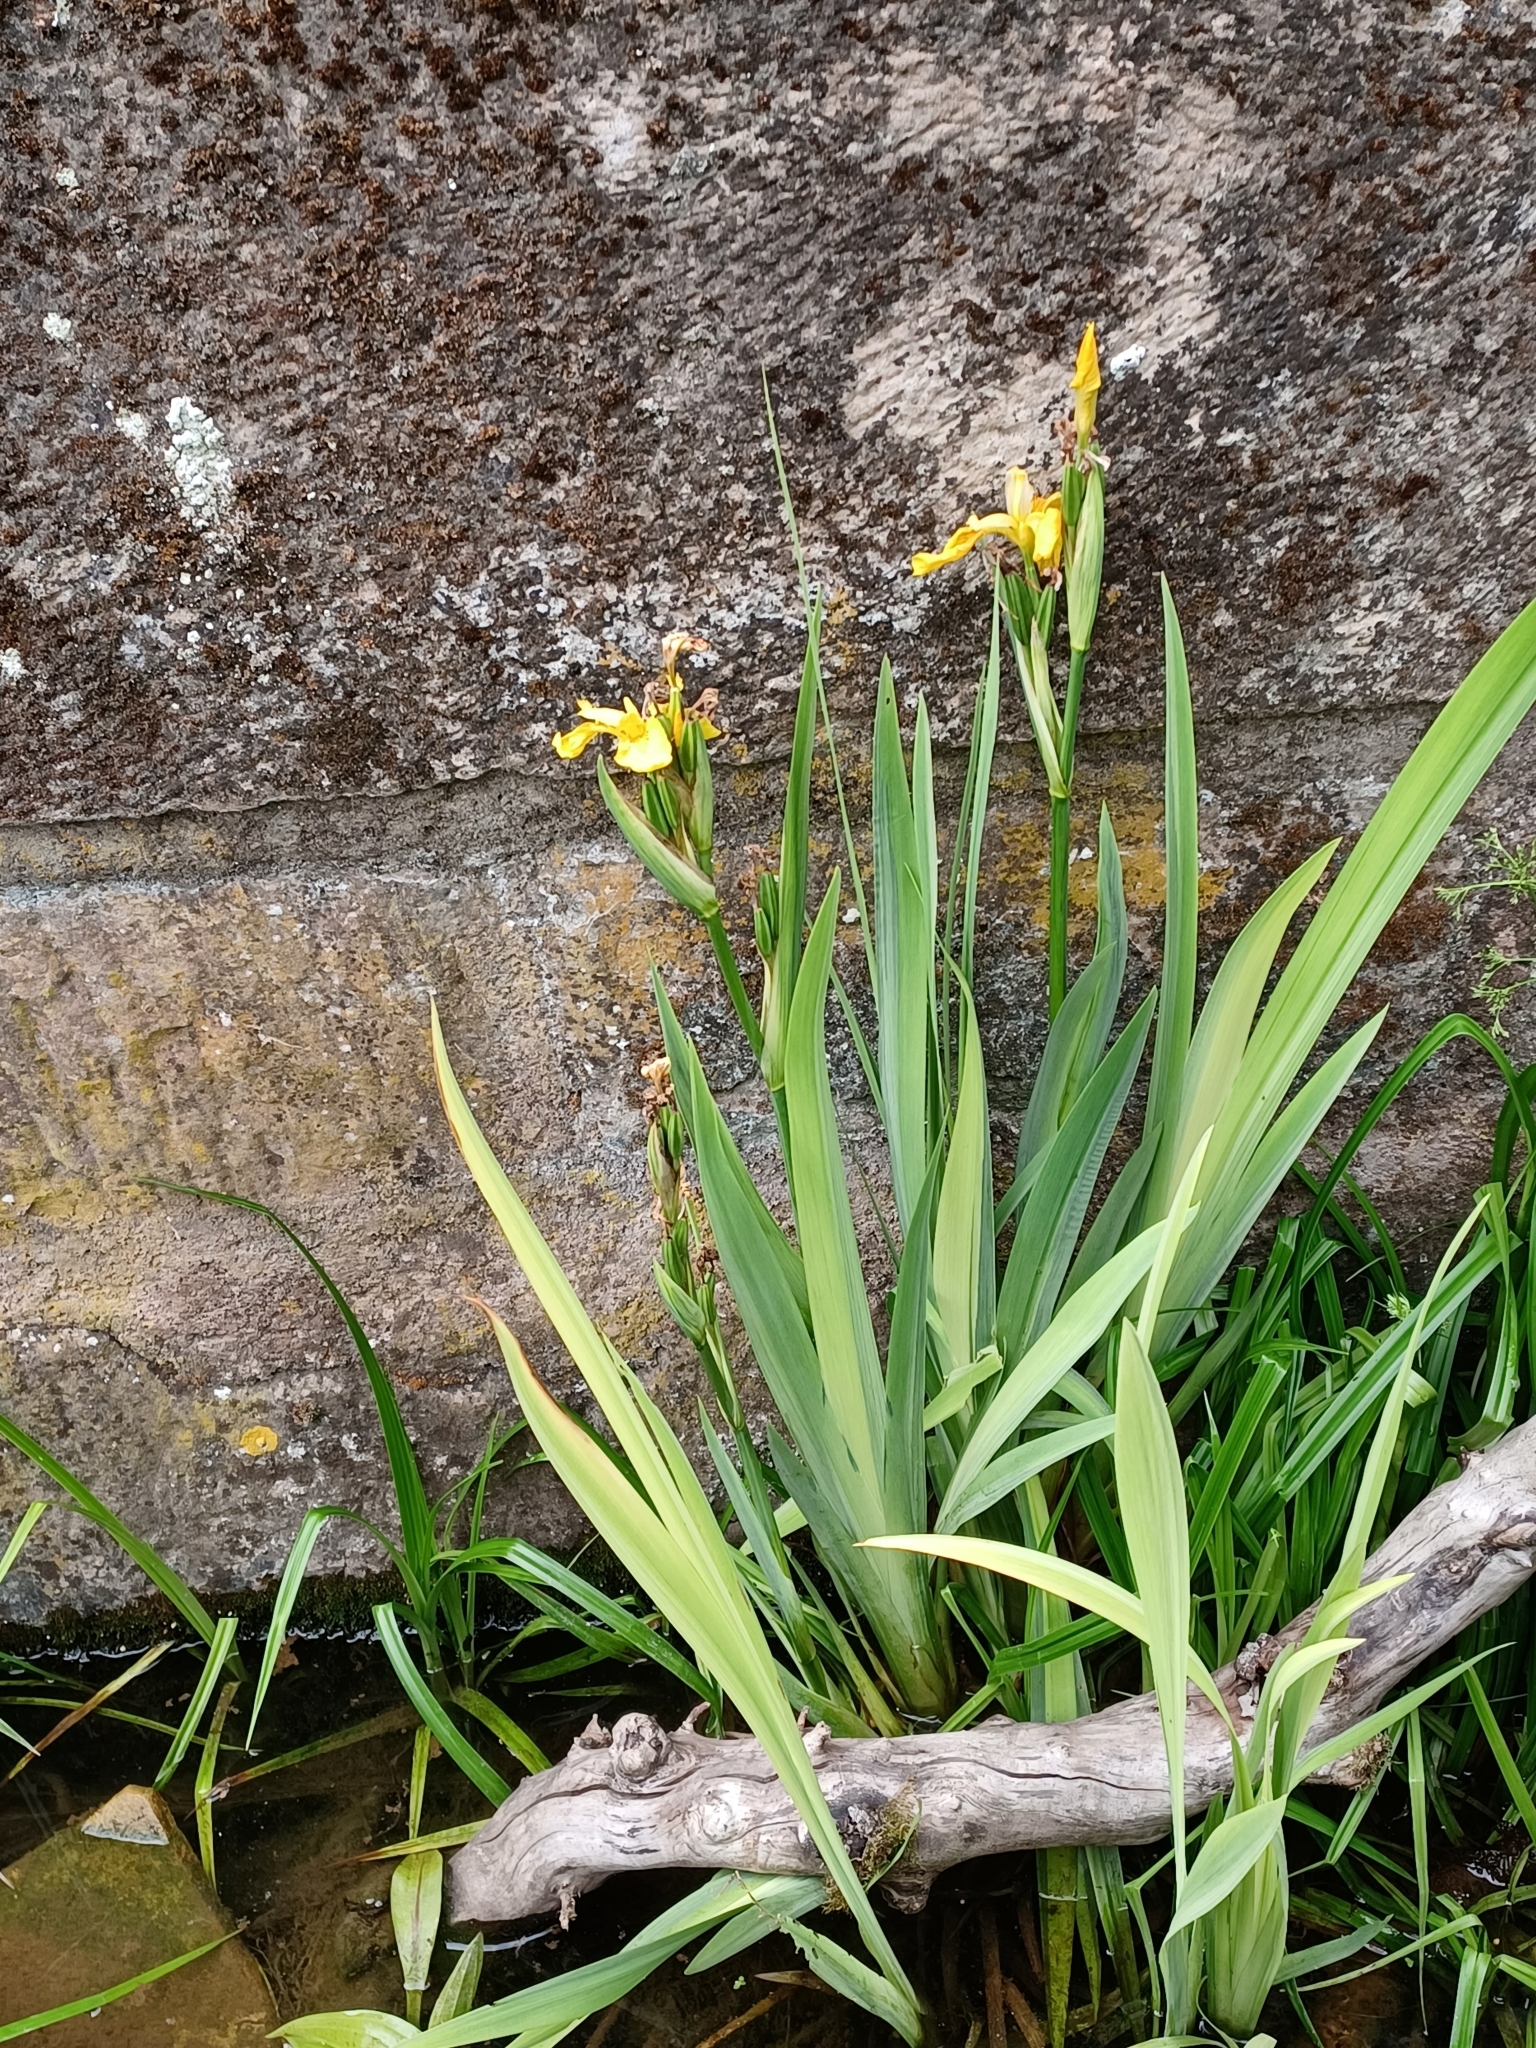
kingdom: Plantae
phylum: Tracheophyta
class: Liliopsida
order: Asparagales
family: Iridaceae
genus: Iris
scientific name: Iris pseudacorus
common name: Yellow flag
